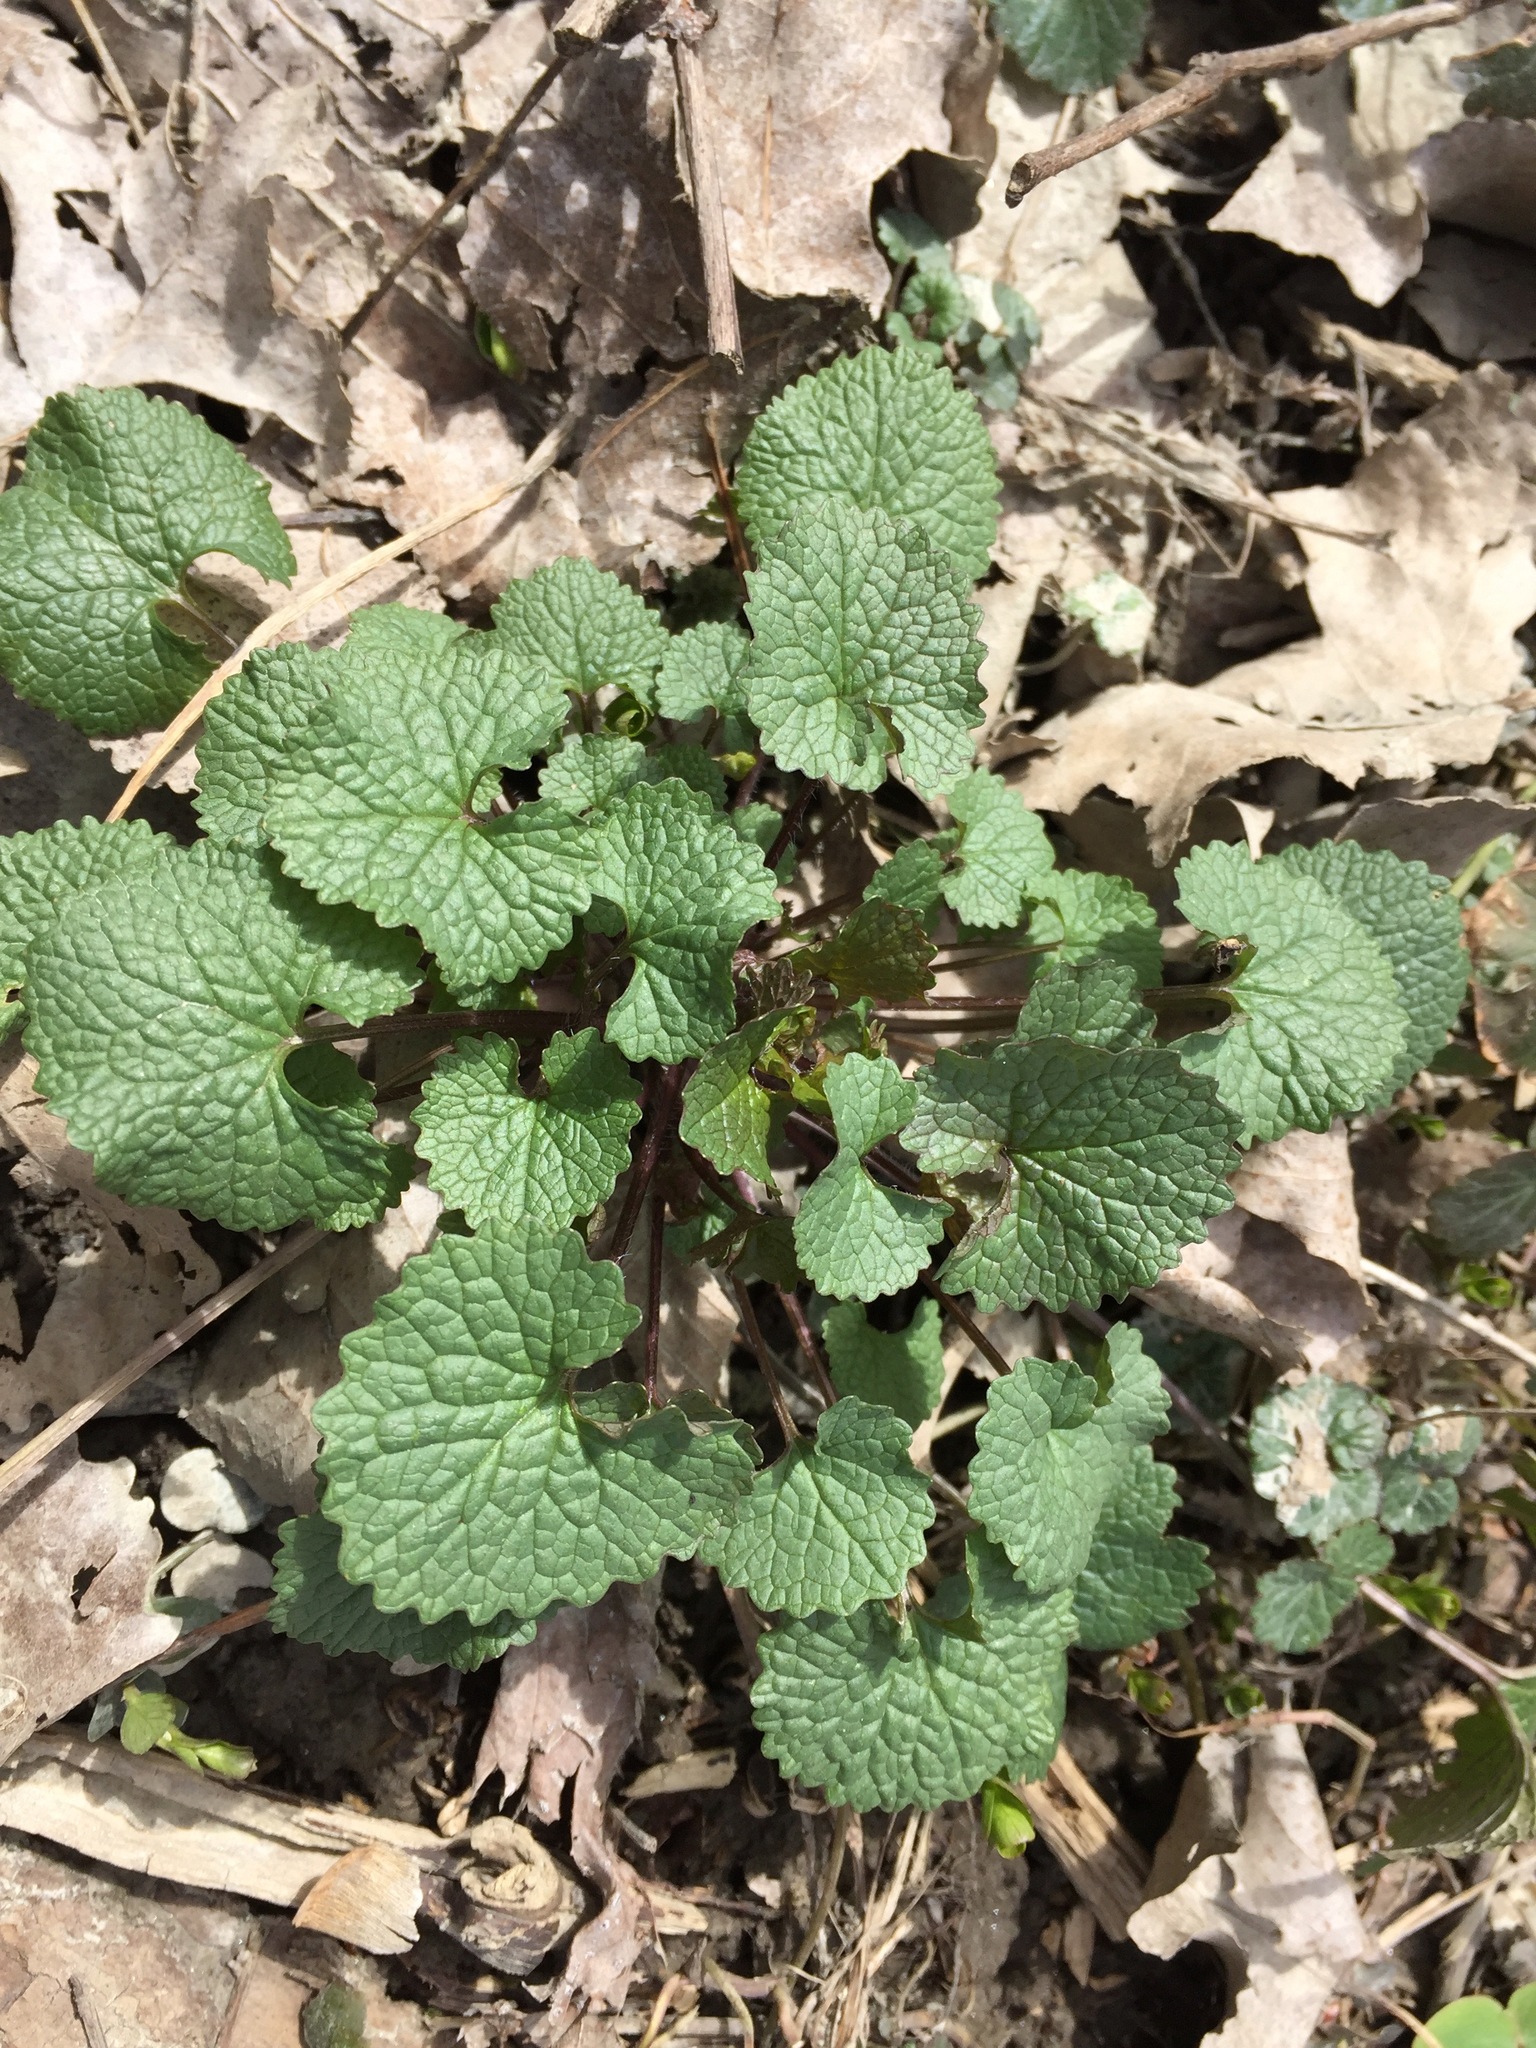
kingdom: Plantae
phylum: Tracheophyta
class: Magnoliopsida
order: Brassicales
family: Brassicaceae
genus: Alliaria
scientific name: Alliaria petiolata
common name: Garlic mustard
